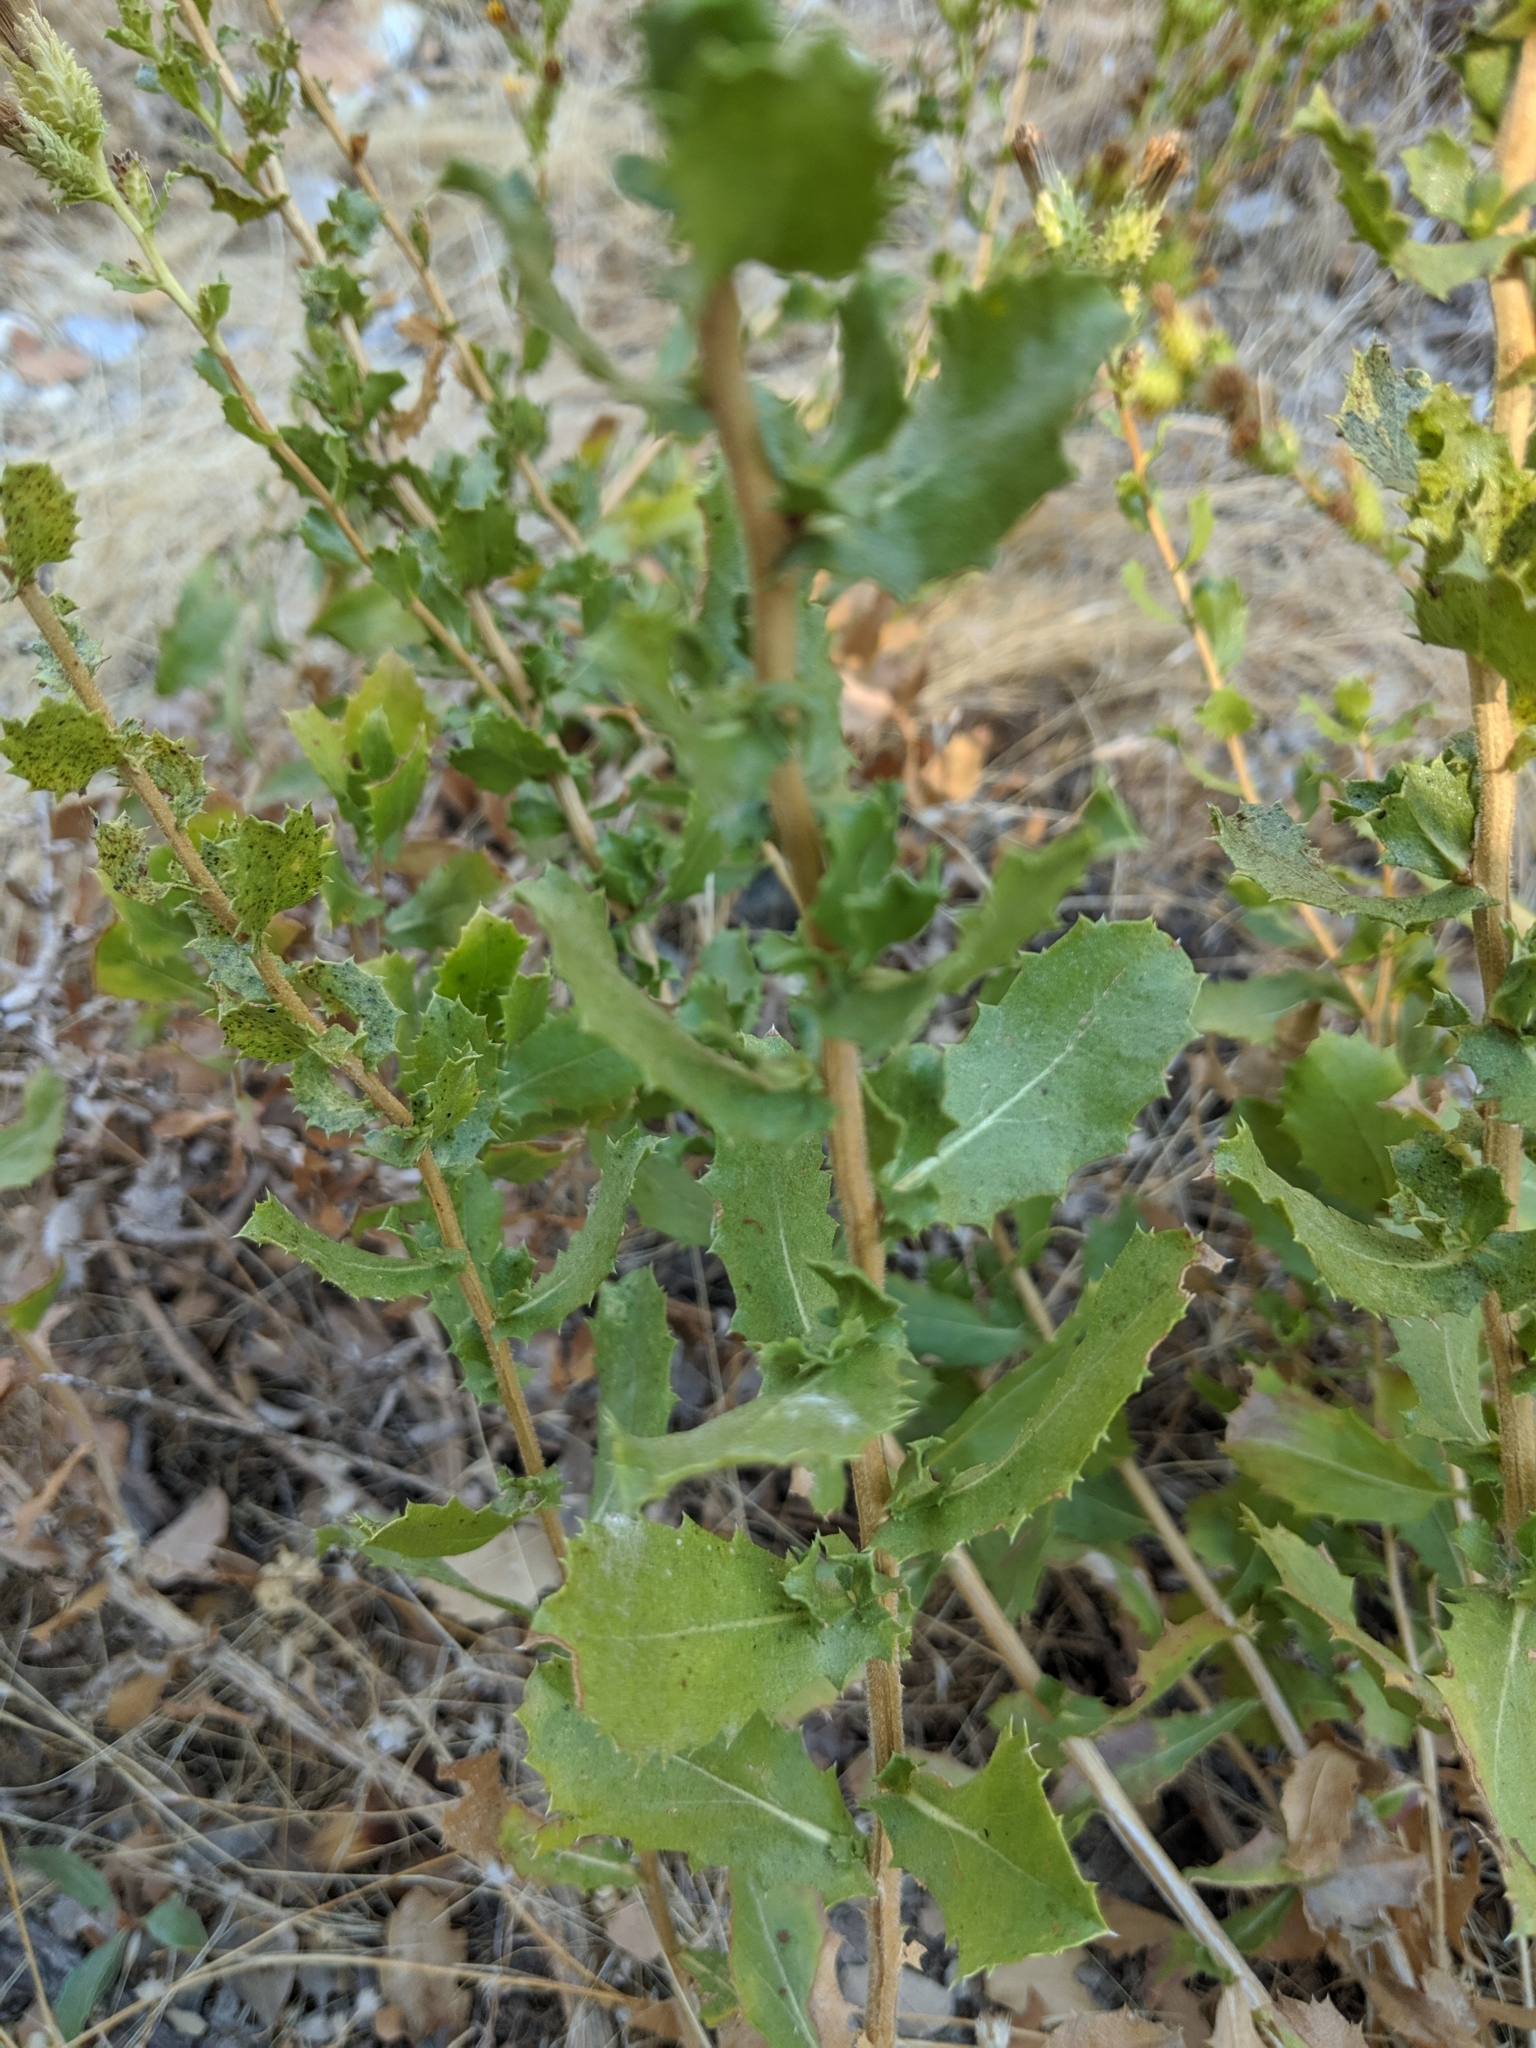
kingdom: Plantae
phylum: Tracheophyta
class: Magnoliopsida
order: Asterales
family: Asteraceae
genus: Hazardia
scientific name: Hazardia squarrosa
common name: Saw-tooth goldenbush
